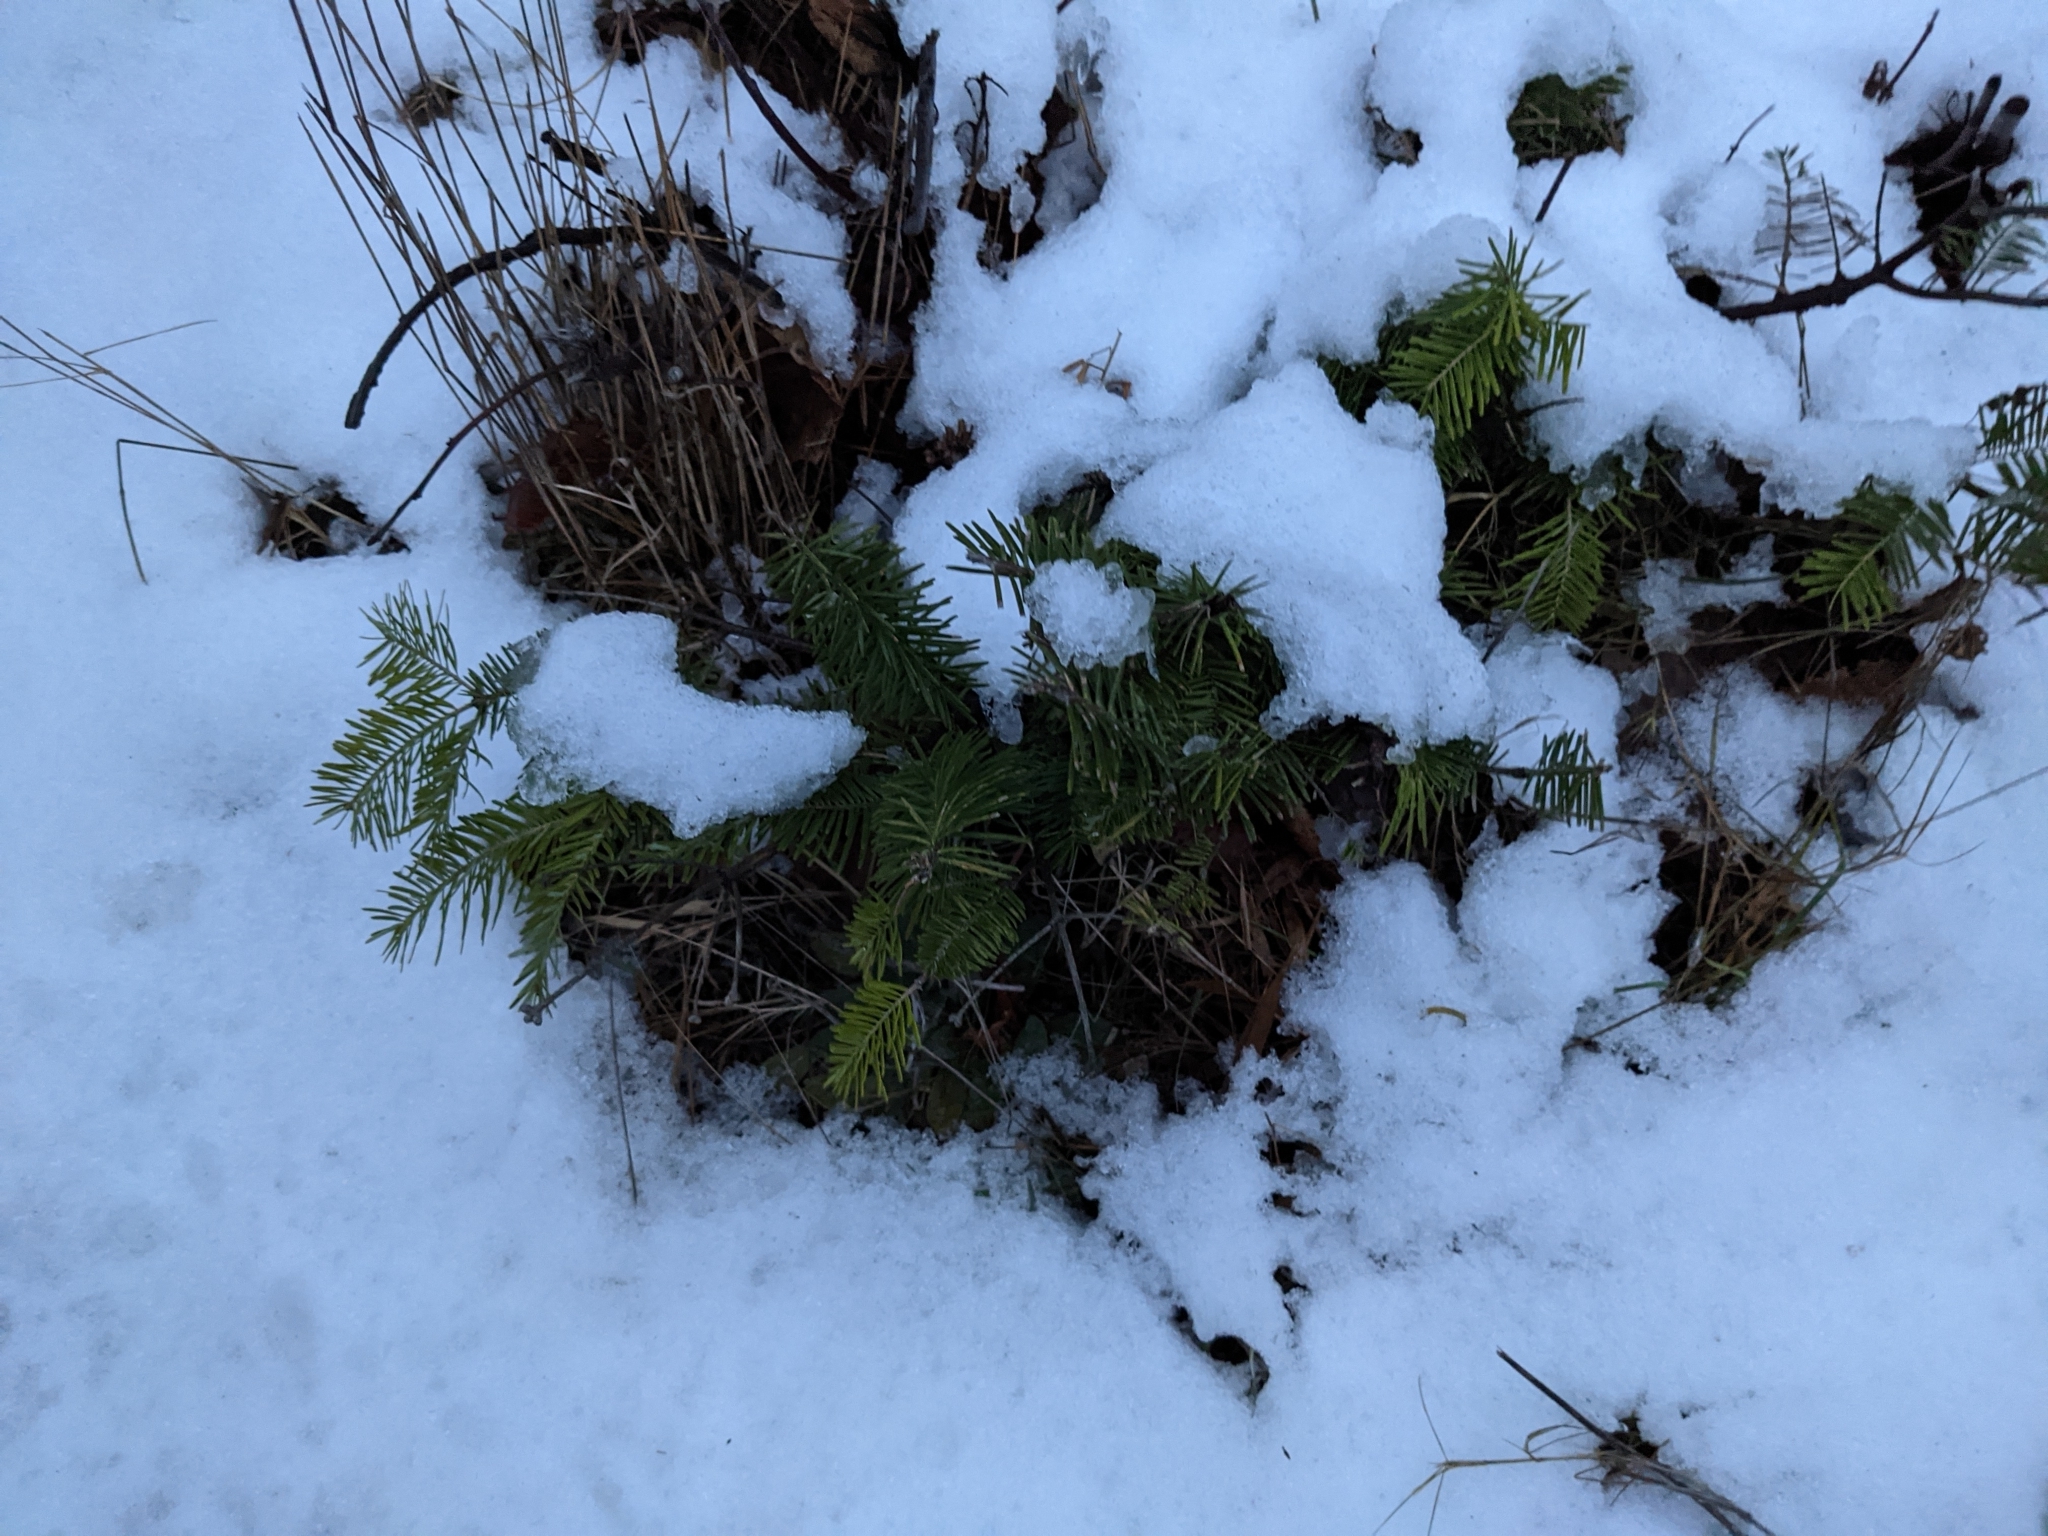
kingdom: Plantae
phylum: Tracheophyta
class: Pinopsida
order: Pinales
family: Pinaceae
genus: Abies
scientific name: Abies balsamea
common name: Balsam fir
